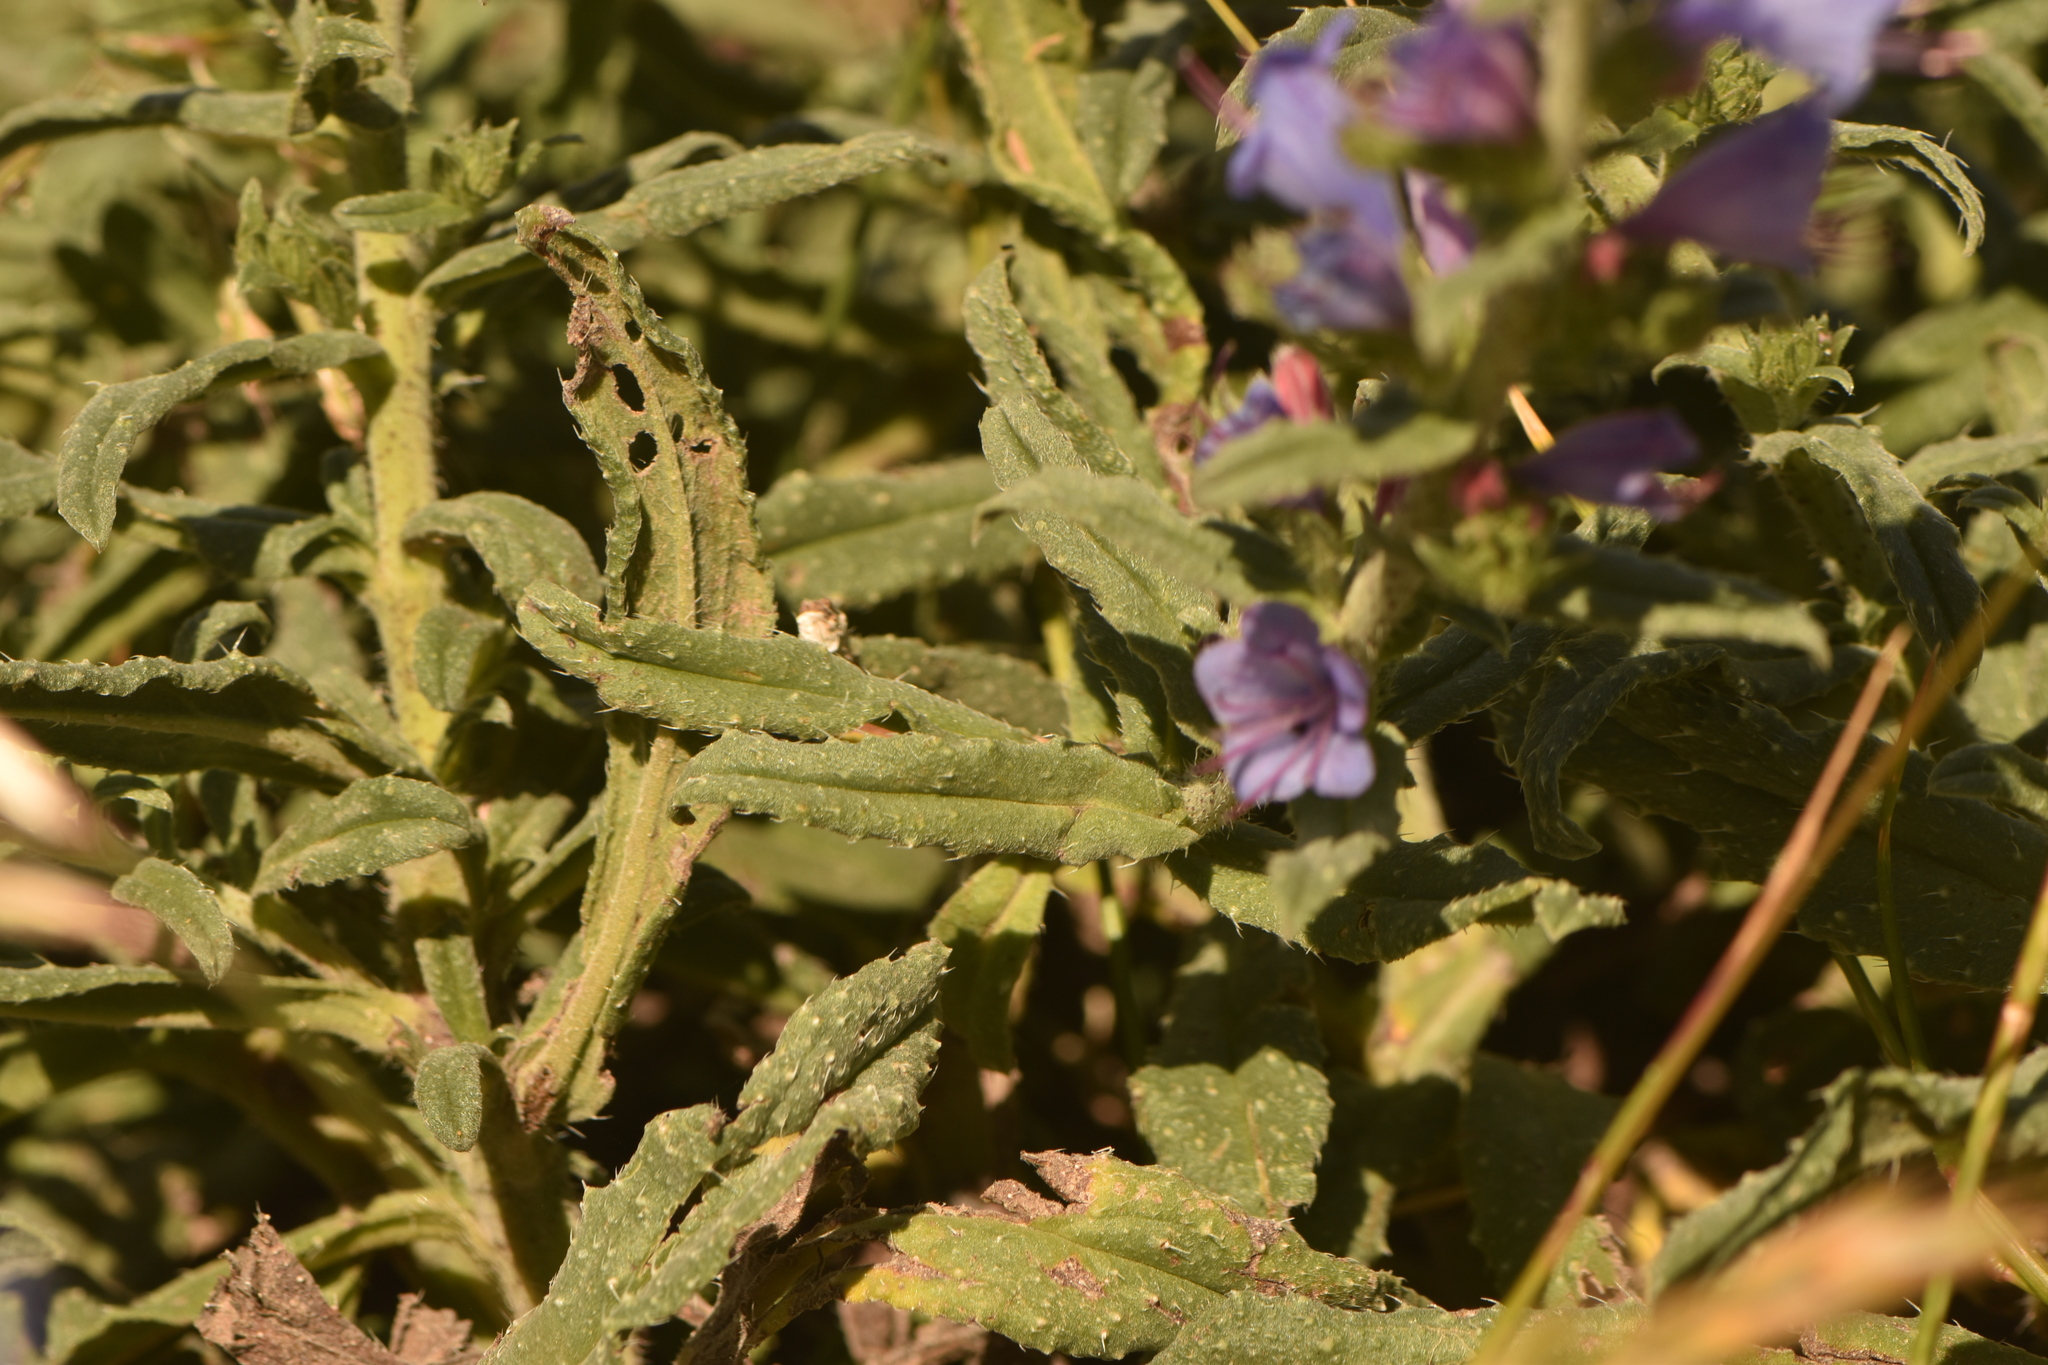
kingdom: Plantae
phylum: Tracheophyta
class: Magnoliopsida
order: Boraginales
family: Boraginaceae
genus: Echium
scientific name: Echium gaditanum
